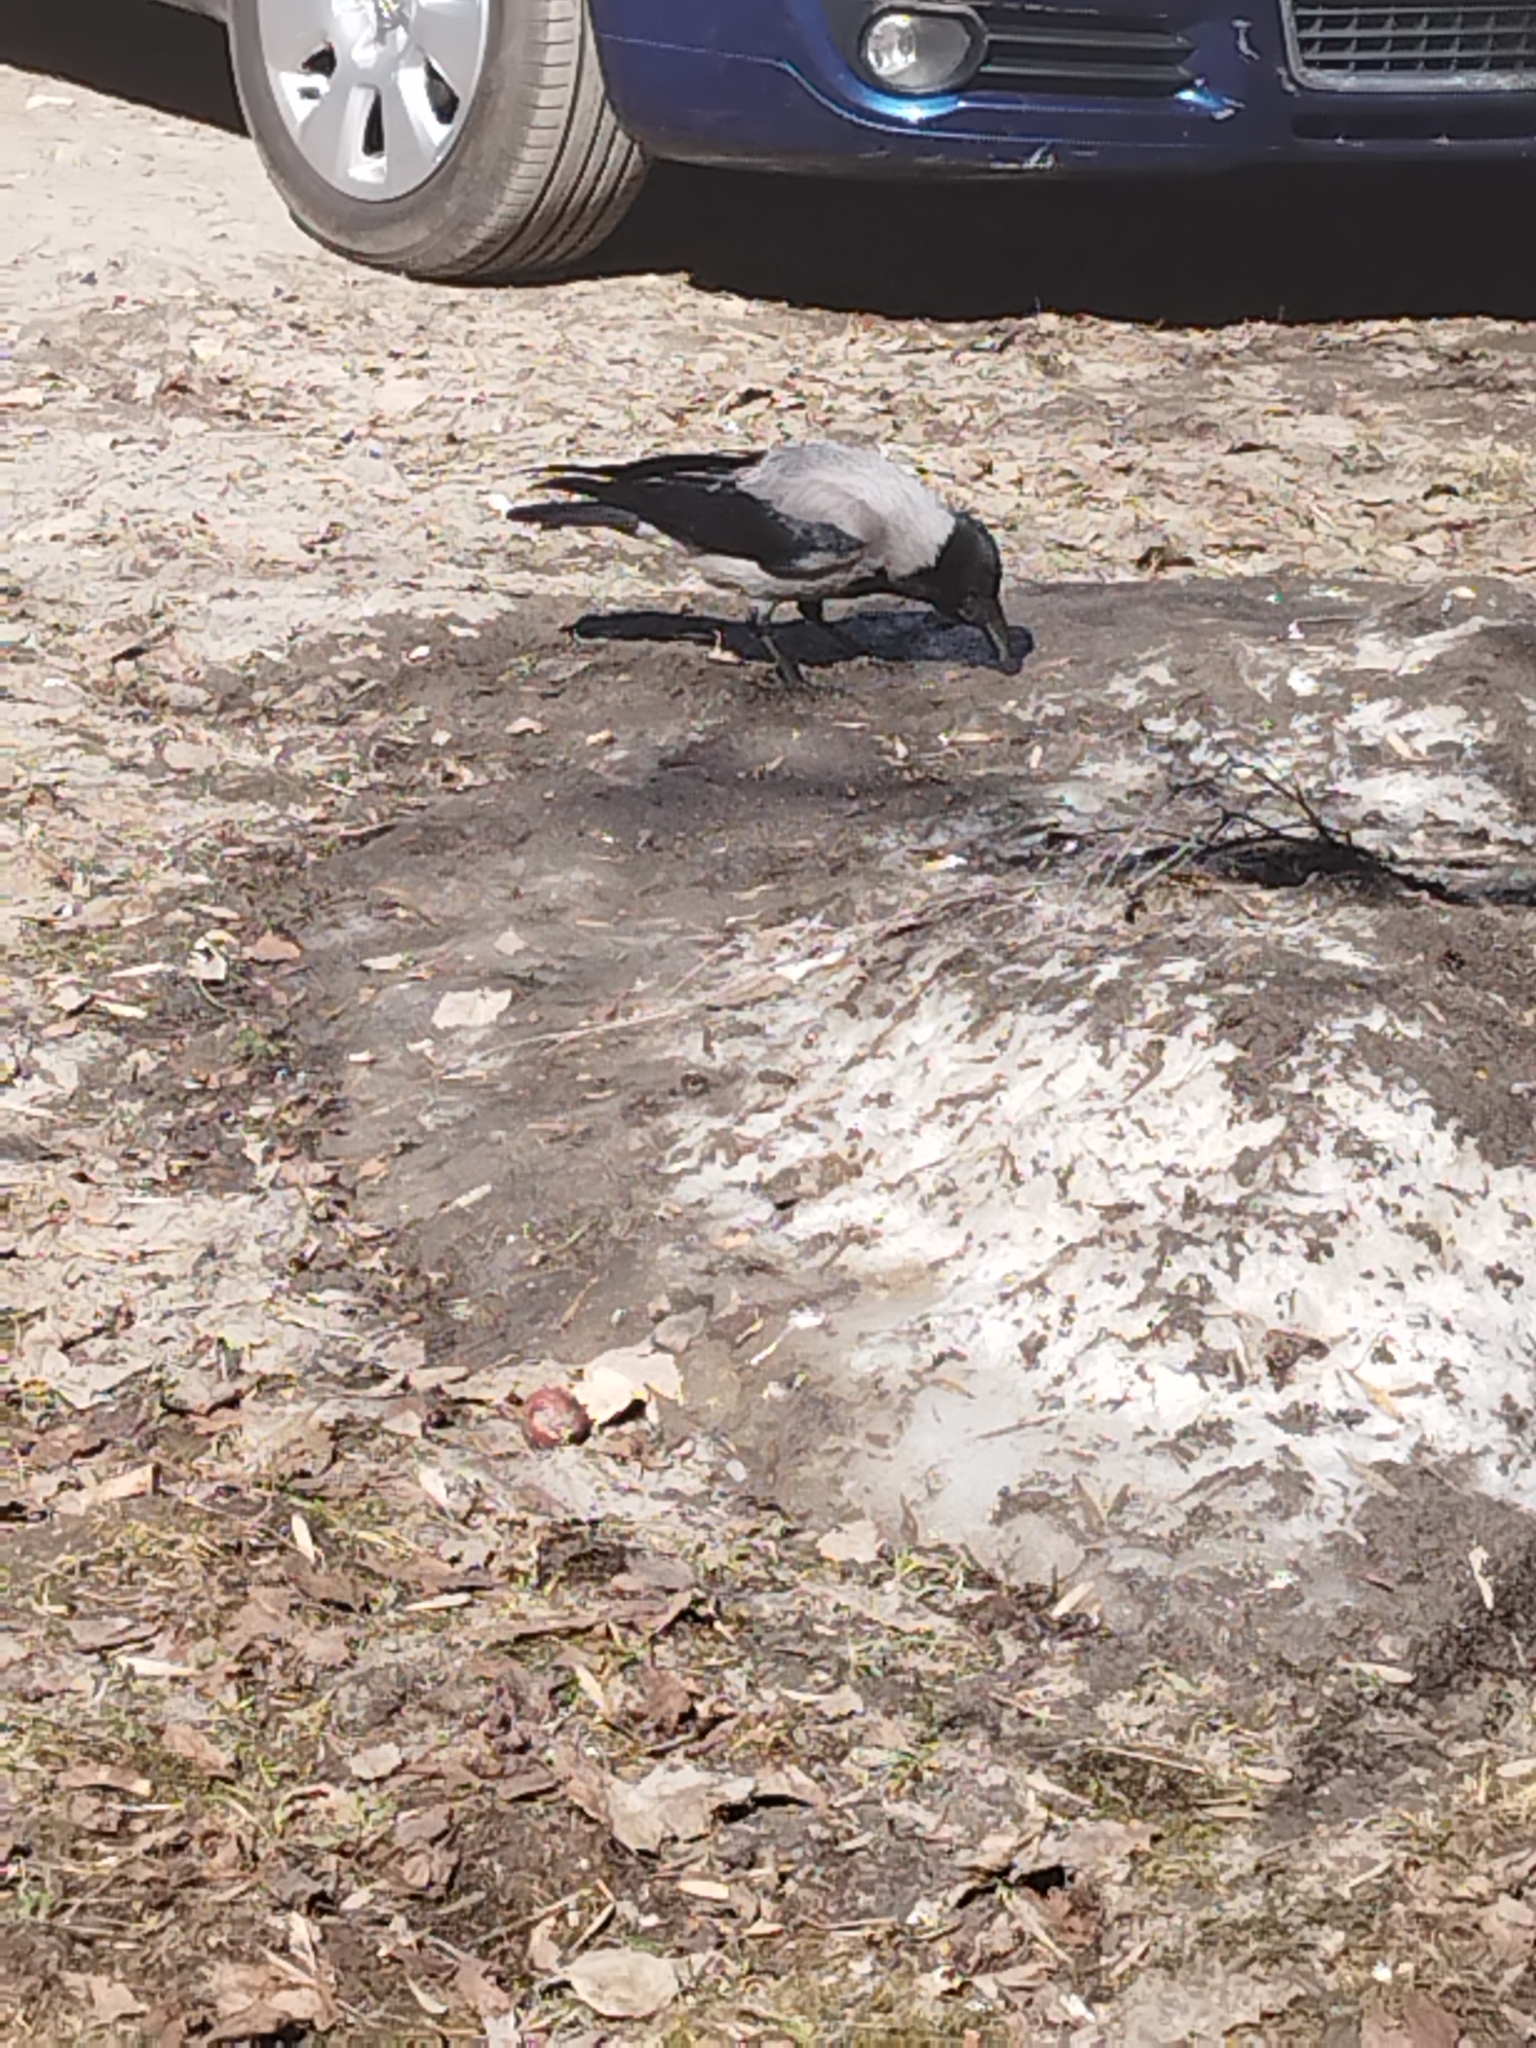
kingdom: Animalia
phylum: Chordata
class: Aves
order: Passeriformes
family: Corvidae
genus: Corvus
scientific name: Corvus cornix
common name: Hooded crow
